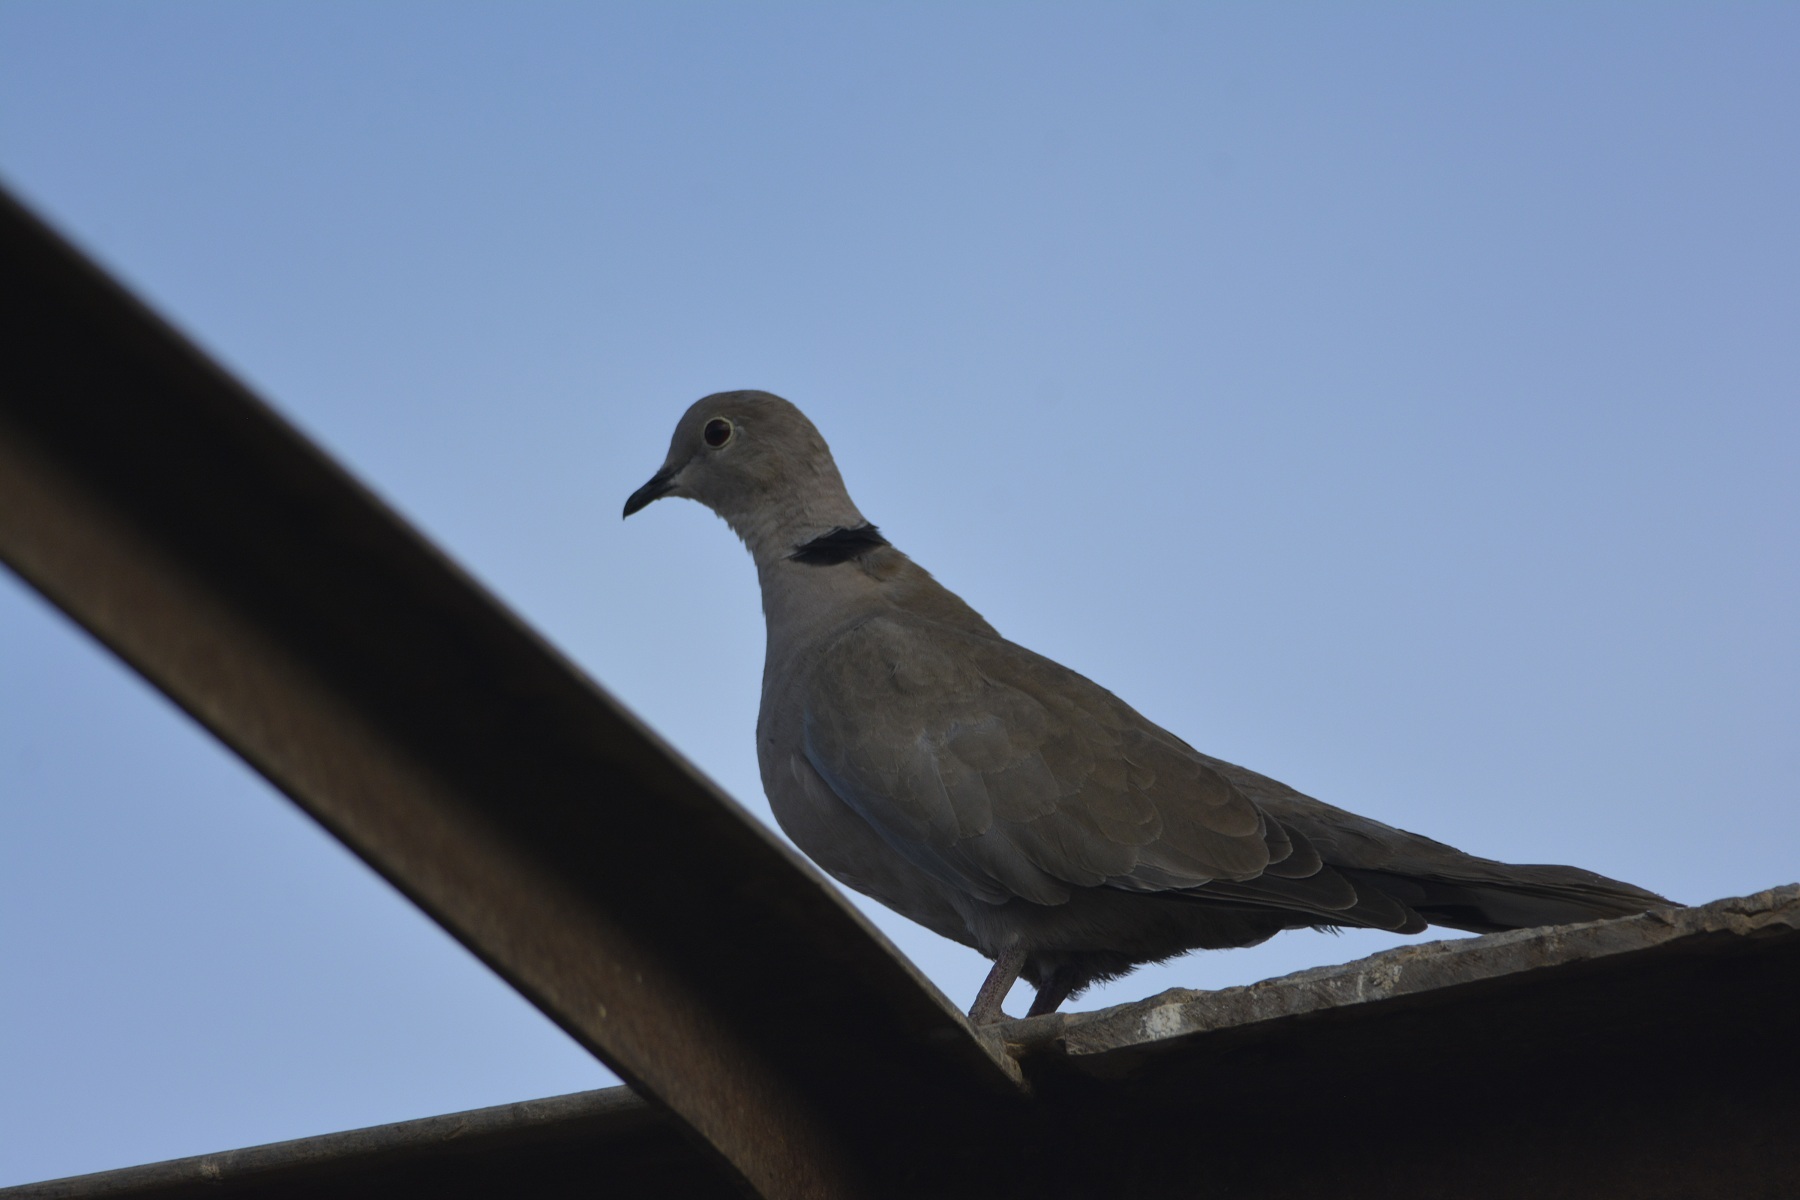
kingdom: Animalia
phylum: Chordata
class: Aves
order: Columbiformes
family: Columbidae
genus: Streptopelia
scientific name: Streptopelia decaocto
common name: Eurasian collared dove
